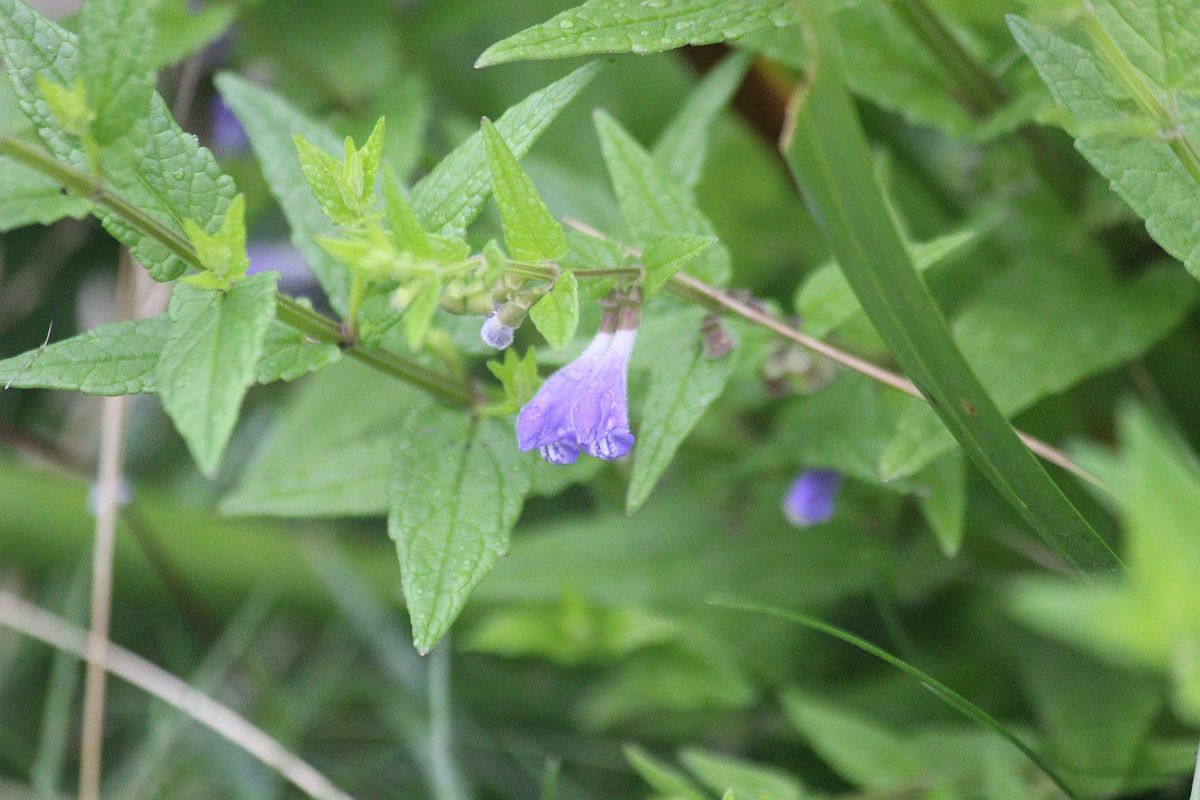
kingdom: Plantae
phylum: Tracheophyta
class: Magnoliopsida
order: Lamiales
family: Lamiaceae
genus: Scutellaria
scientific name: Scutellaria galericulata
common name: Skullcap
